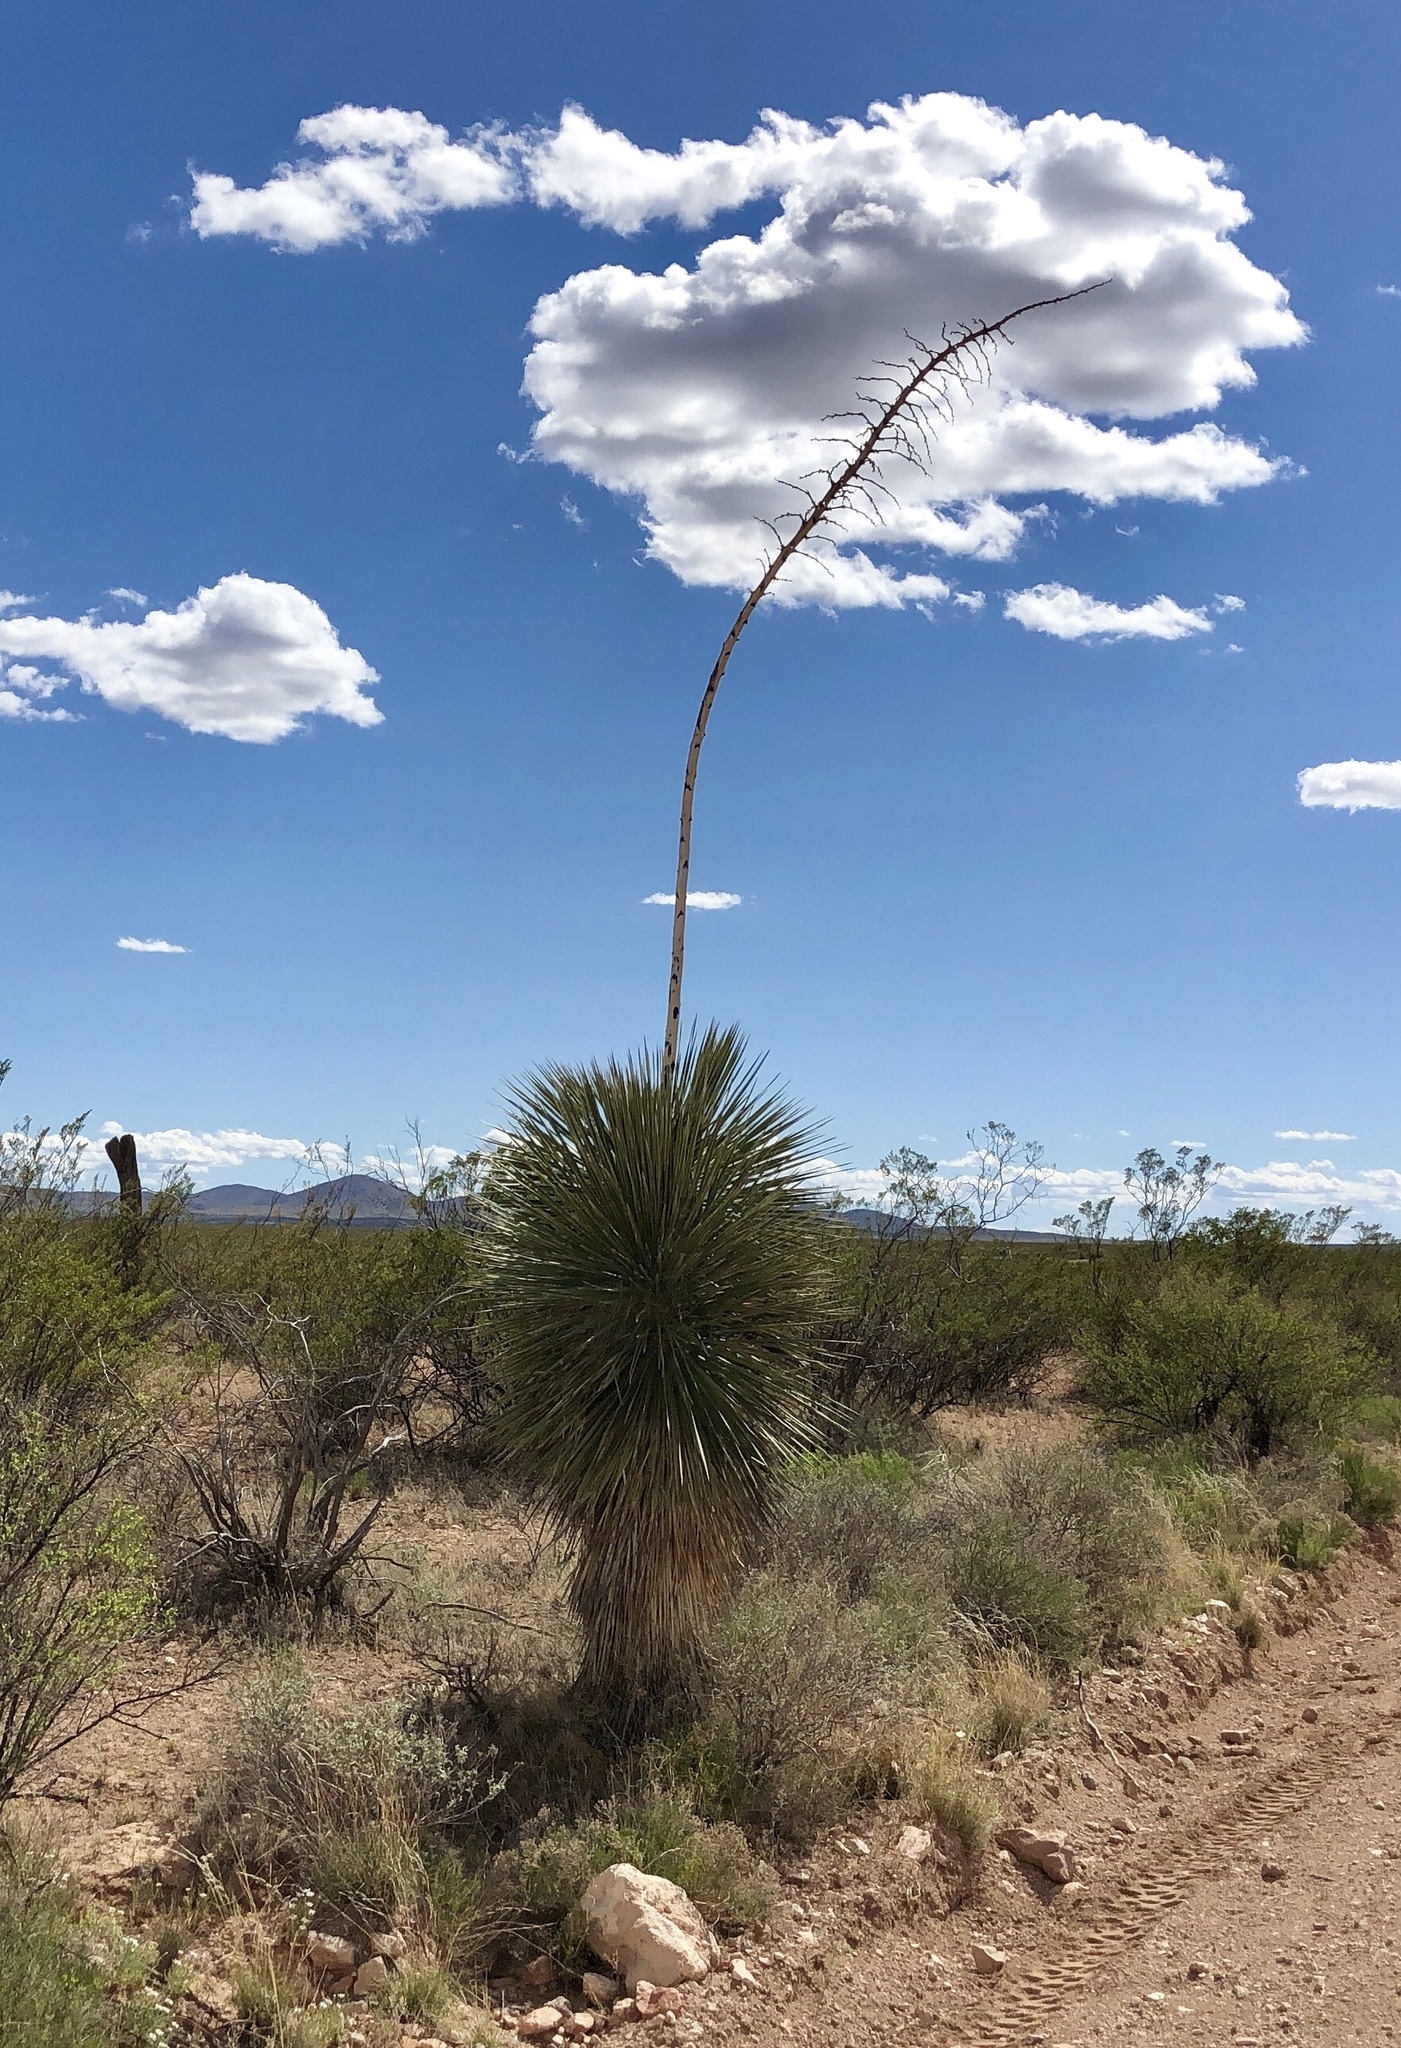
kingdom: Plantae
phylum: Tracheophyta
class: Liliopsida
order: Asparagales
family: Asparagaceae
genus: Yucca
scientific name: Yucca elata
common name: Palmella
